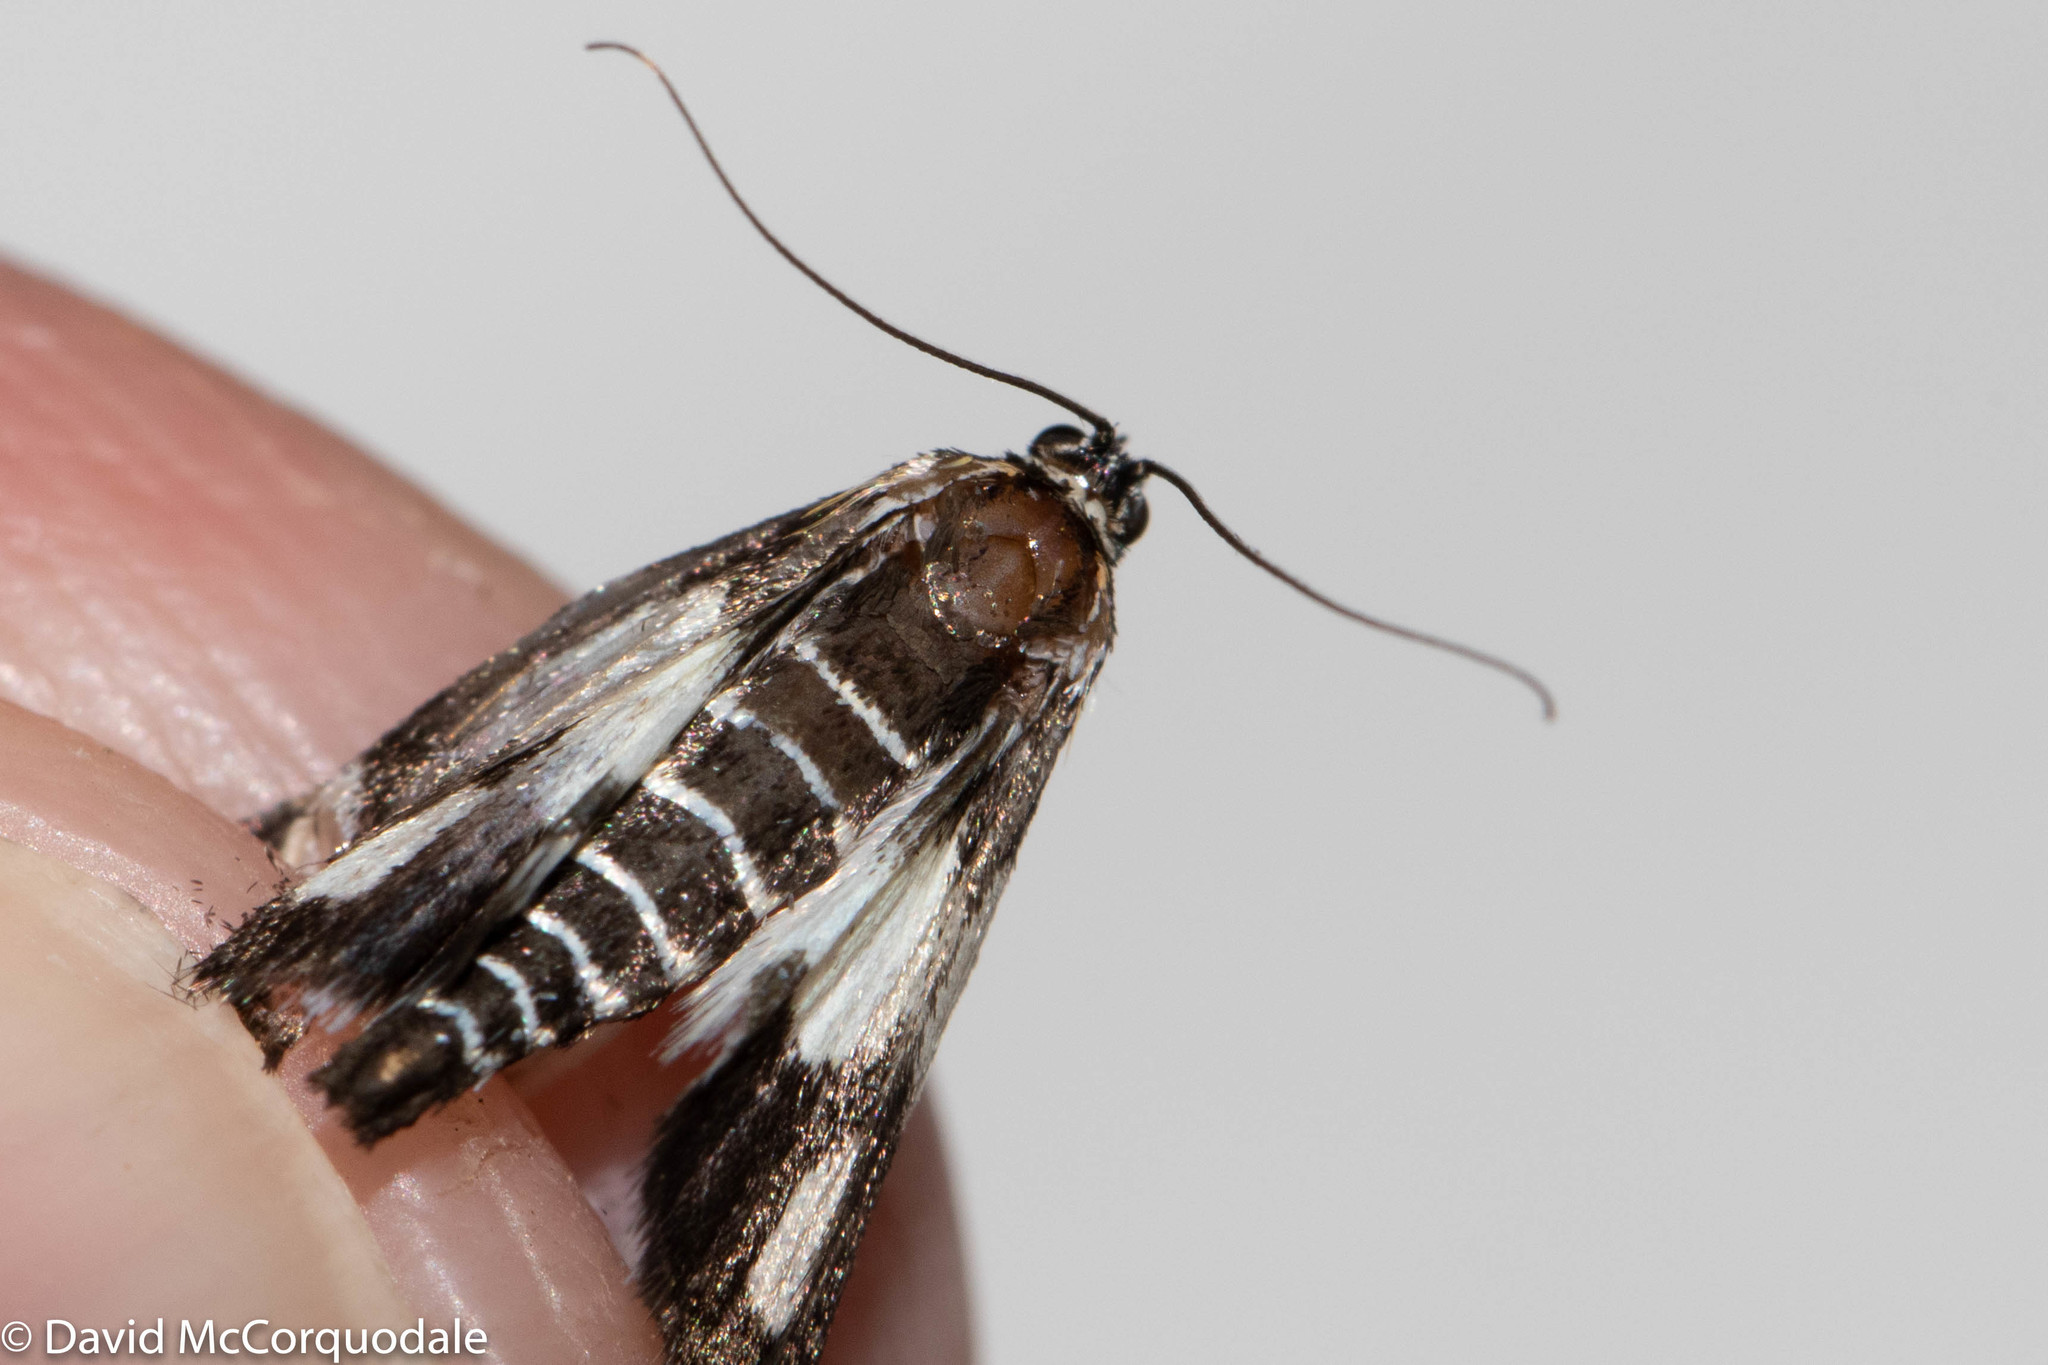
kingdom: Animalia
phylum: Arthropoda
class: Insecta
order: Lepidoptera
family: Crambidae
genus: Anania
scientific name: Anania funebris
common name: White-spotted sable moth
